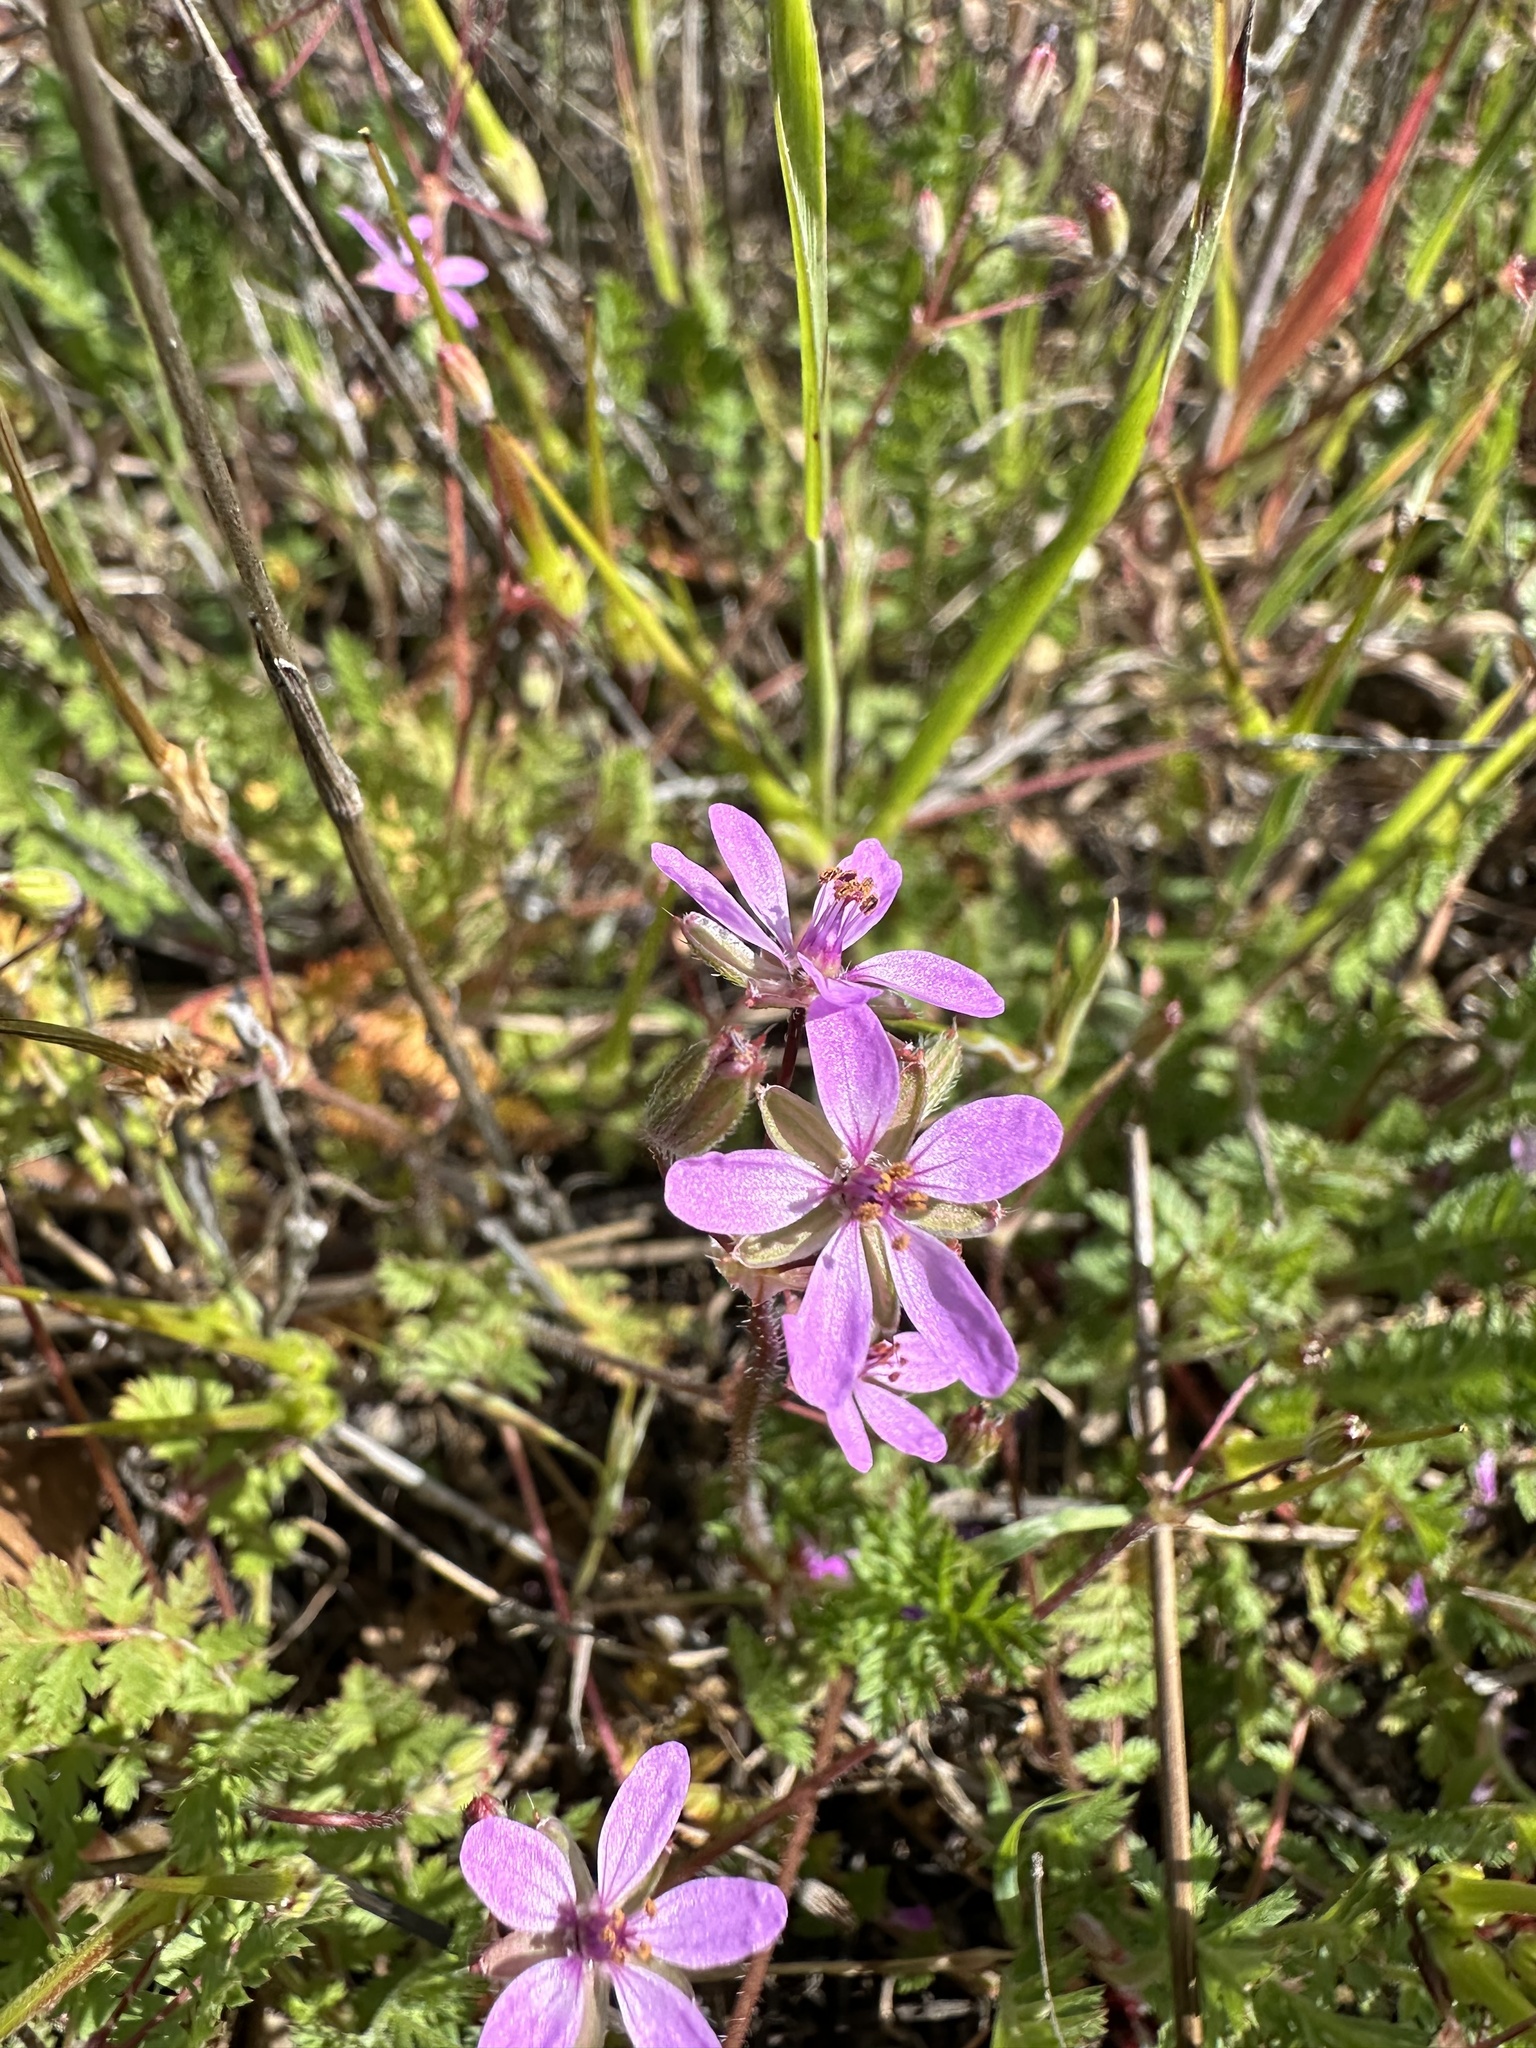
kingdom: Plantae
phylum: Tracheophyta
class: Magnoliopsida
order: Geraniales
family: Geraniaceae
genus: Erodium
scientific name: Erodium cicutarium
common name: Common stork's-bill
